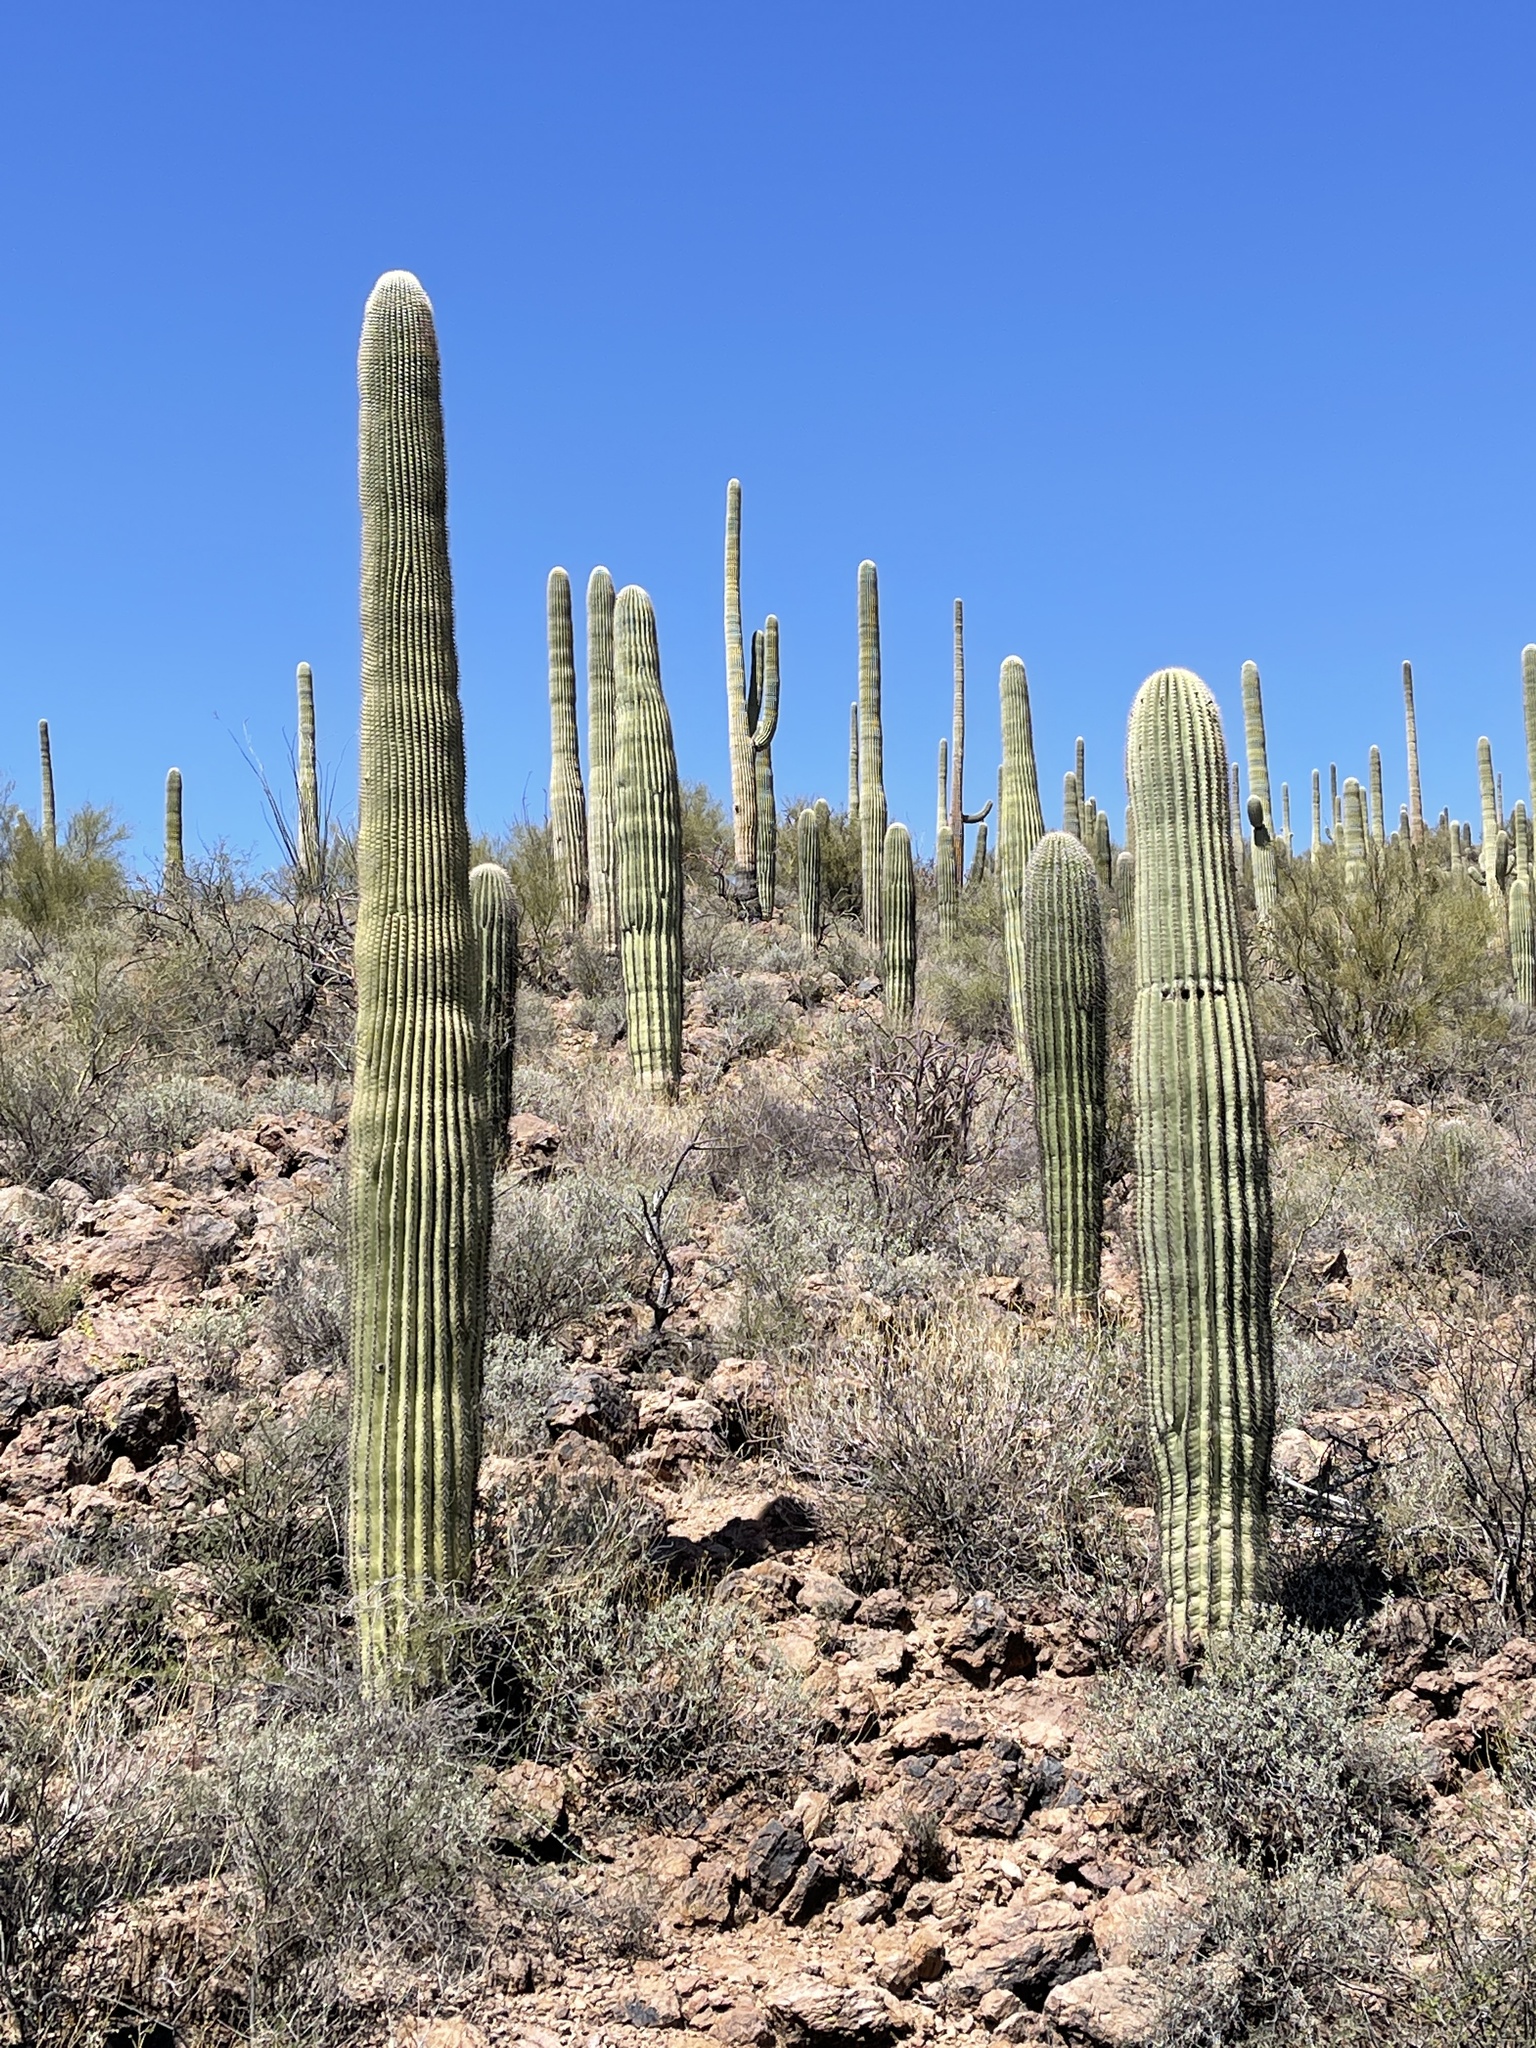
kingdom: Plantae
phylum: Tracheophyta
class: Magnoliopsida
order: Caryophyllales
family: Cactaceae
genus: Carnegiea
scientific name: Carnegiea gigantea
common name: Saguaro
